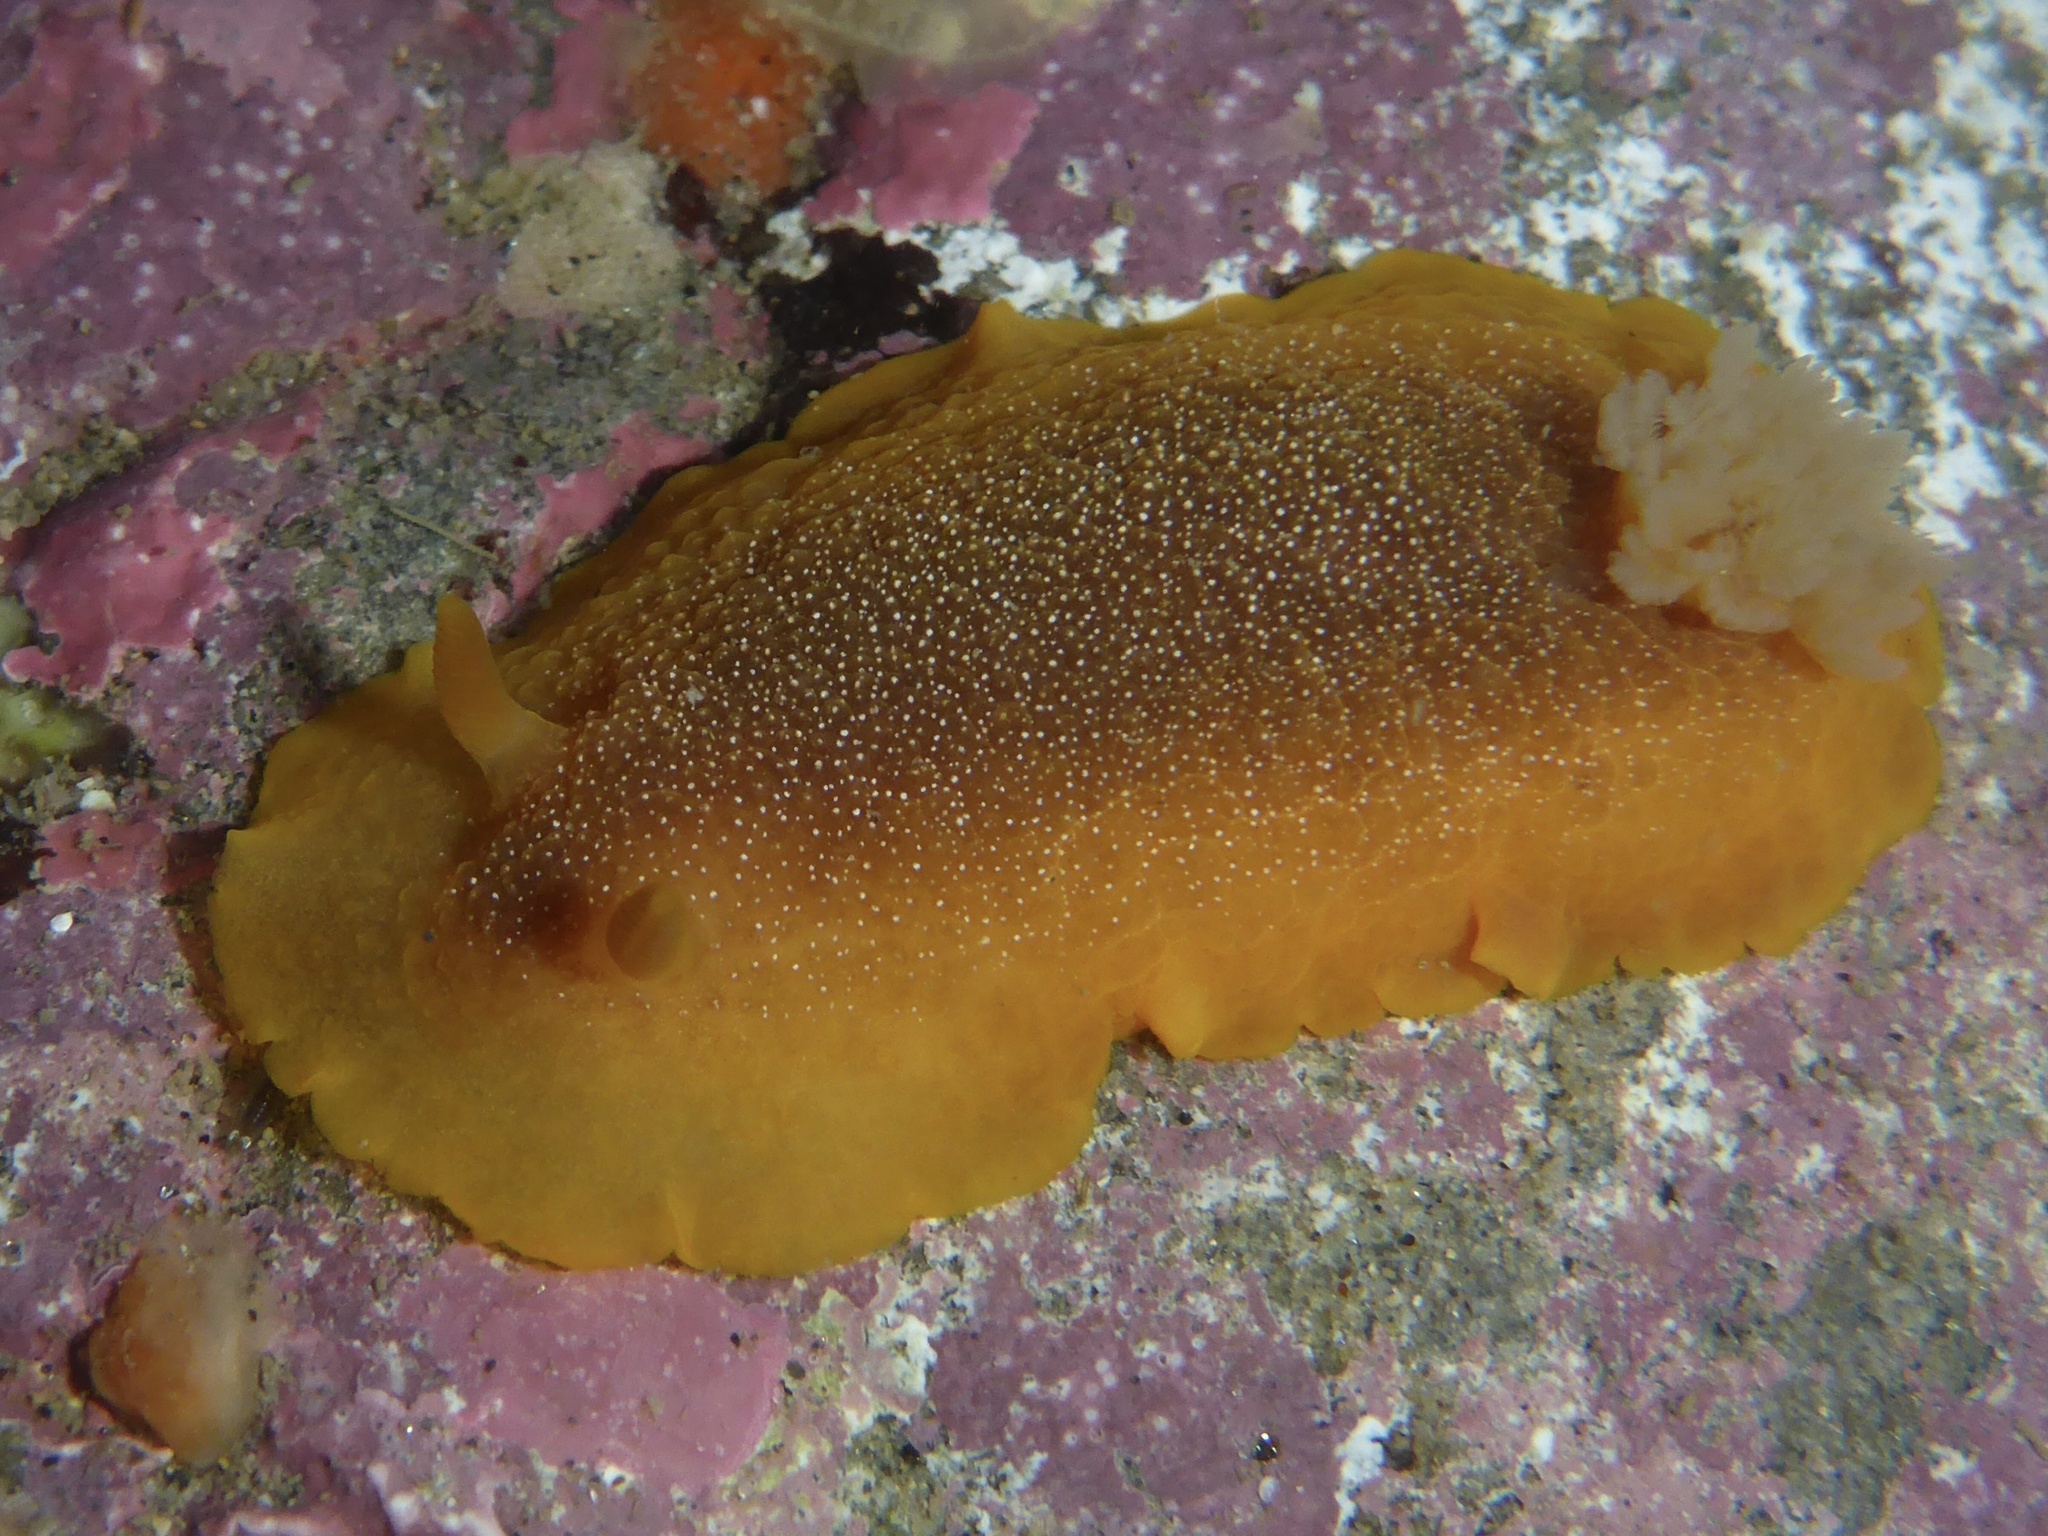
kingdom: Animalia
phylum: Mollusca
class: Gastropoda
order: Nudibranchia
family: Dendrodorididae
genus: Doriopsilla
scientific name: Doriopsilla albopunctata
